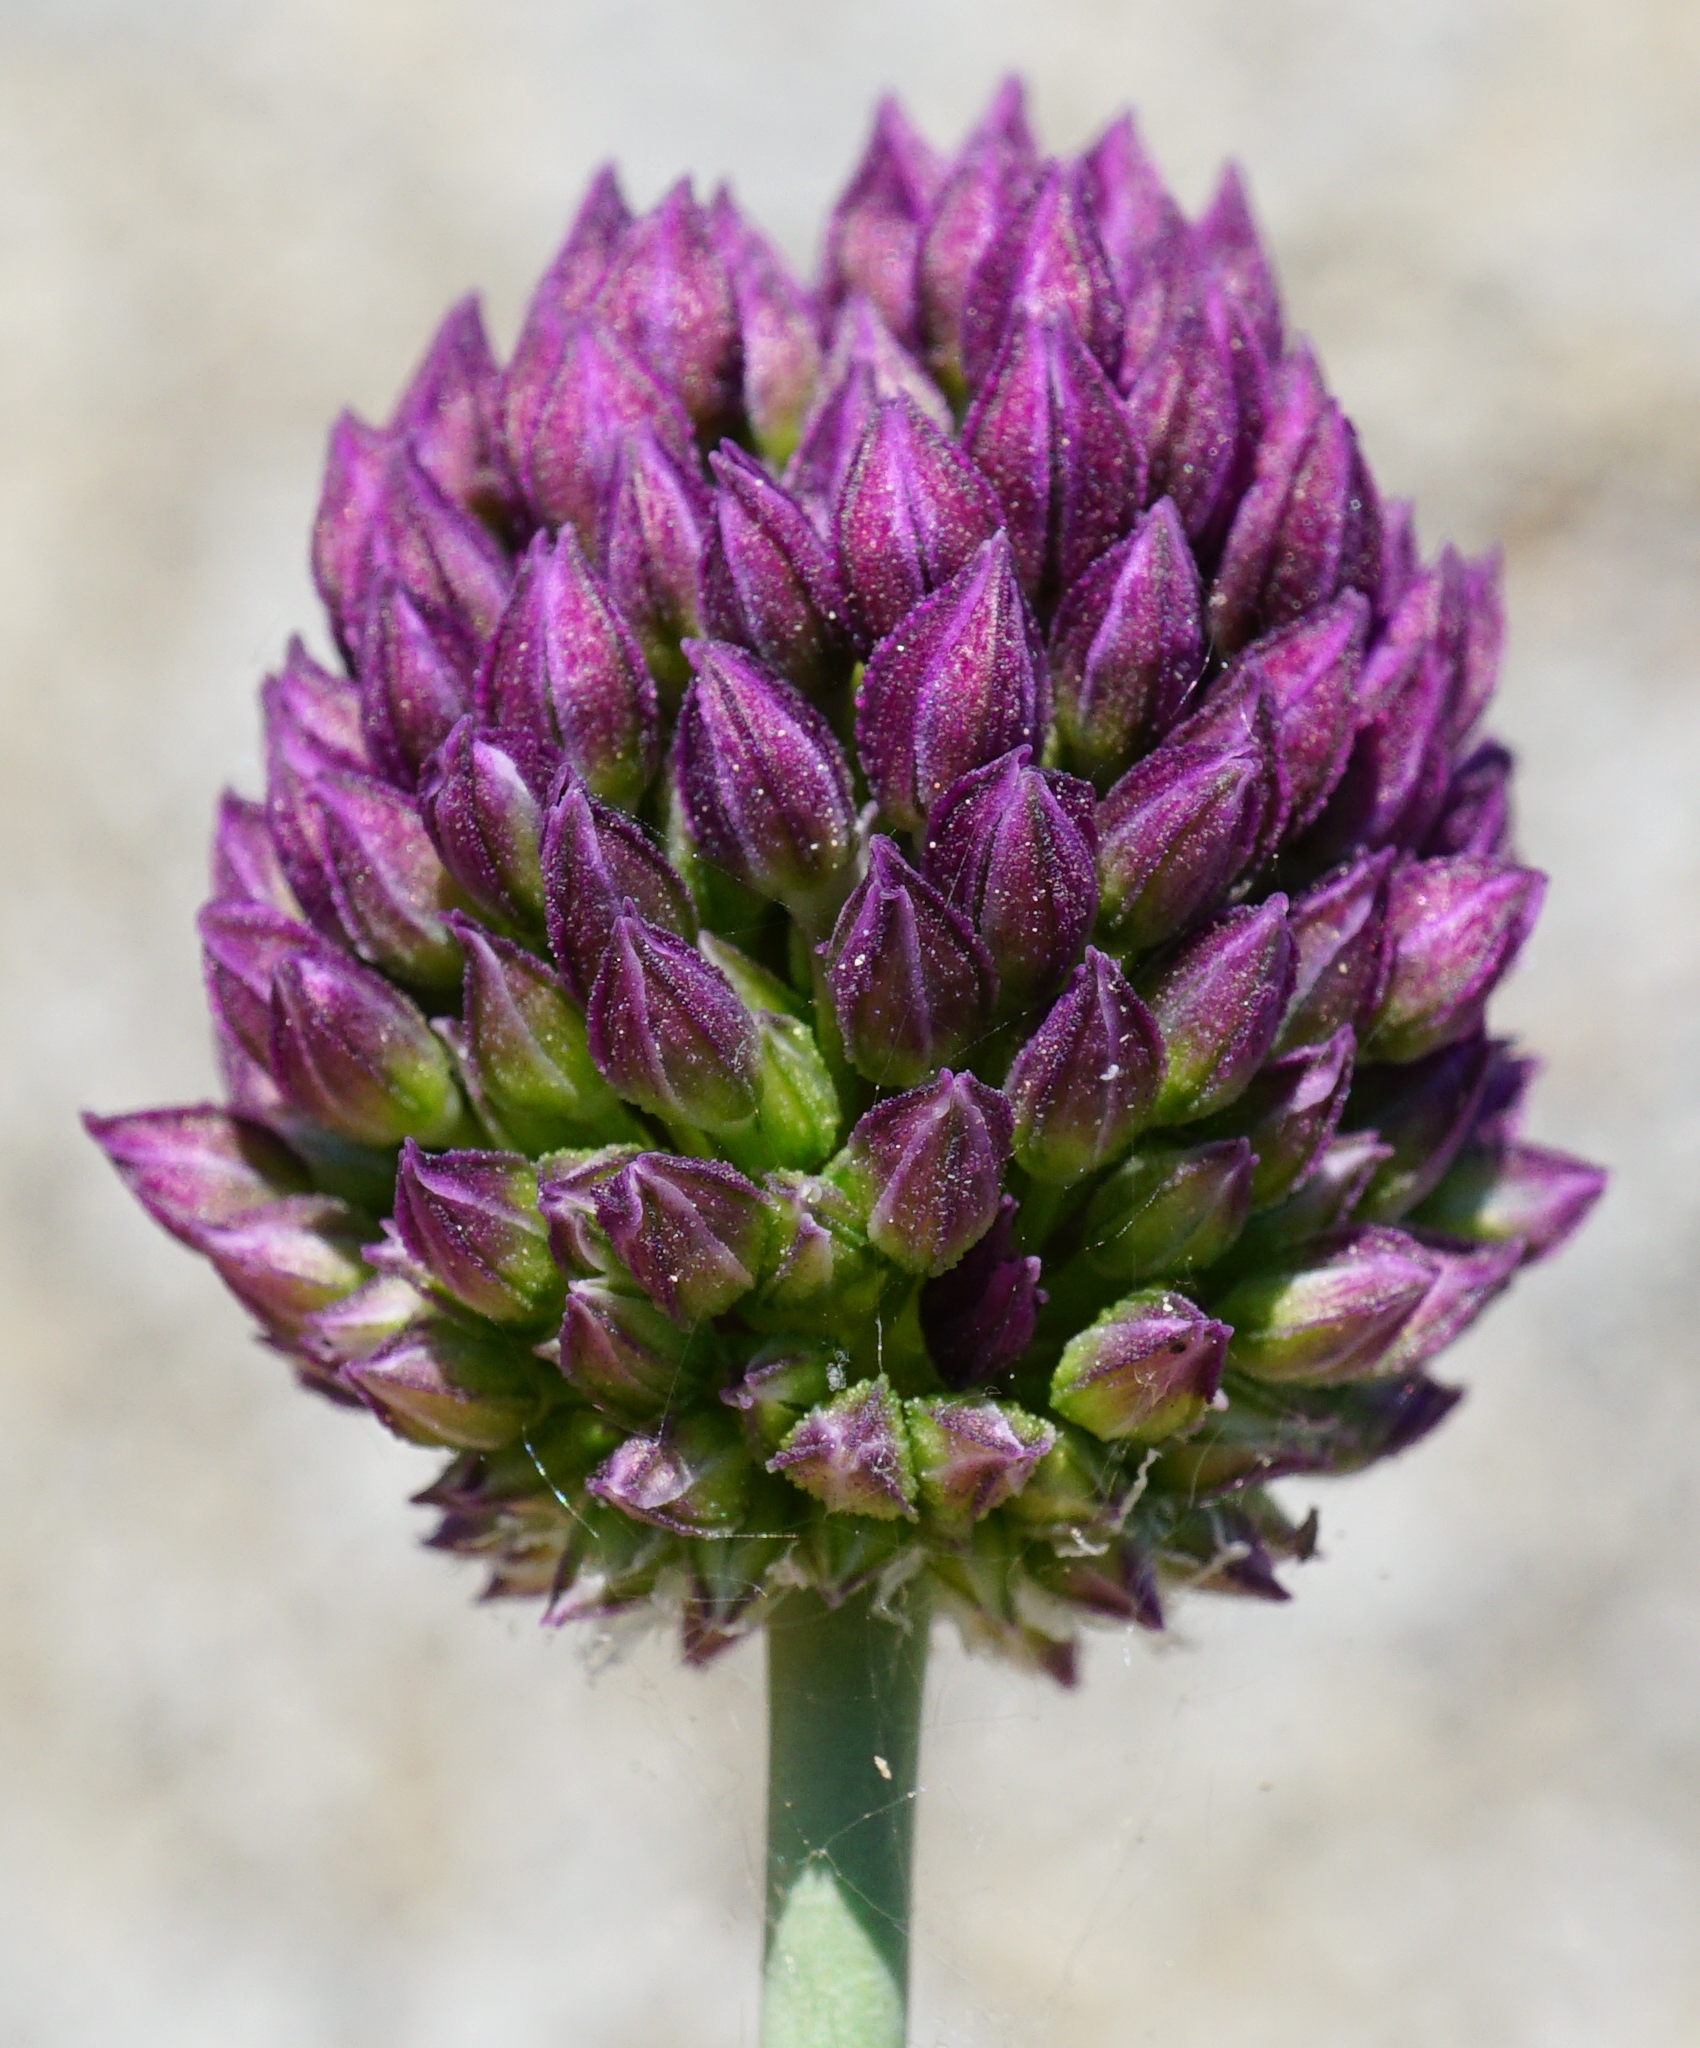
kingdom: Plantae
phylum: Tracheophyta
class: Liliopsida
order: Asparagales
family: Amaryllidaceae
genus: Allium
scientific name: Allium rotundum
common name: Sand leek
